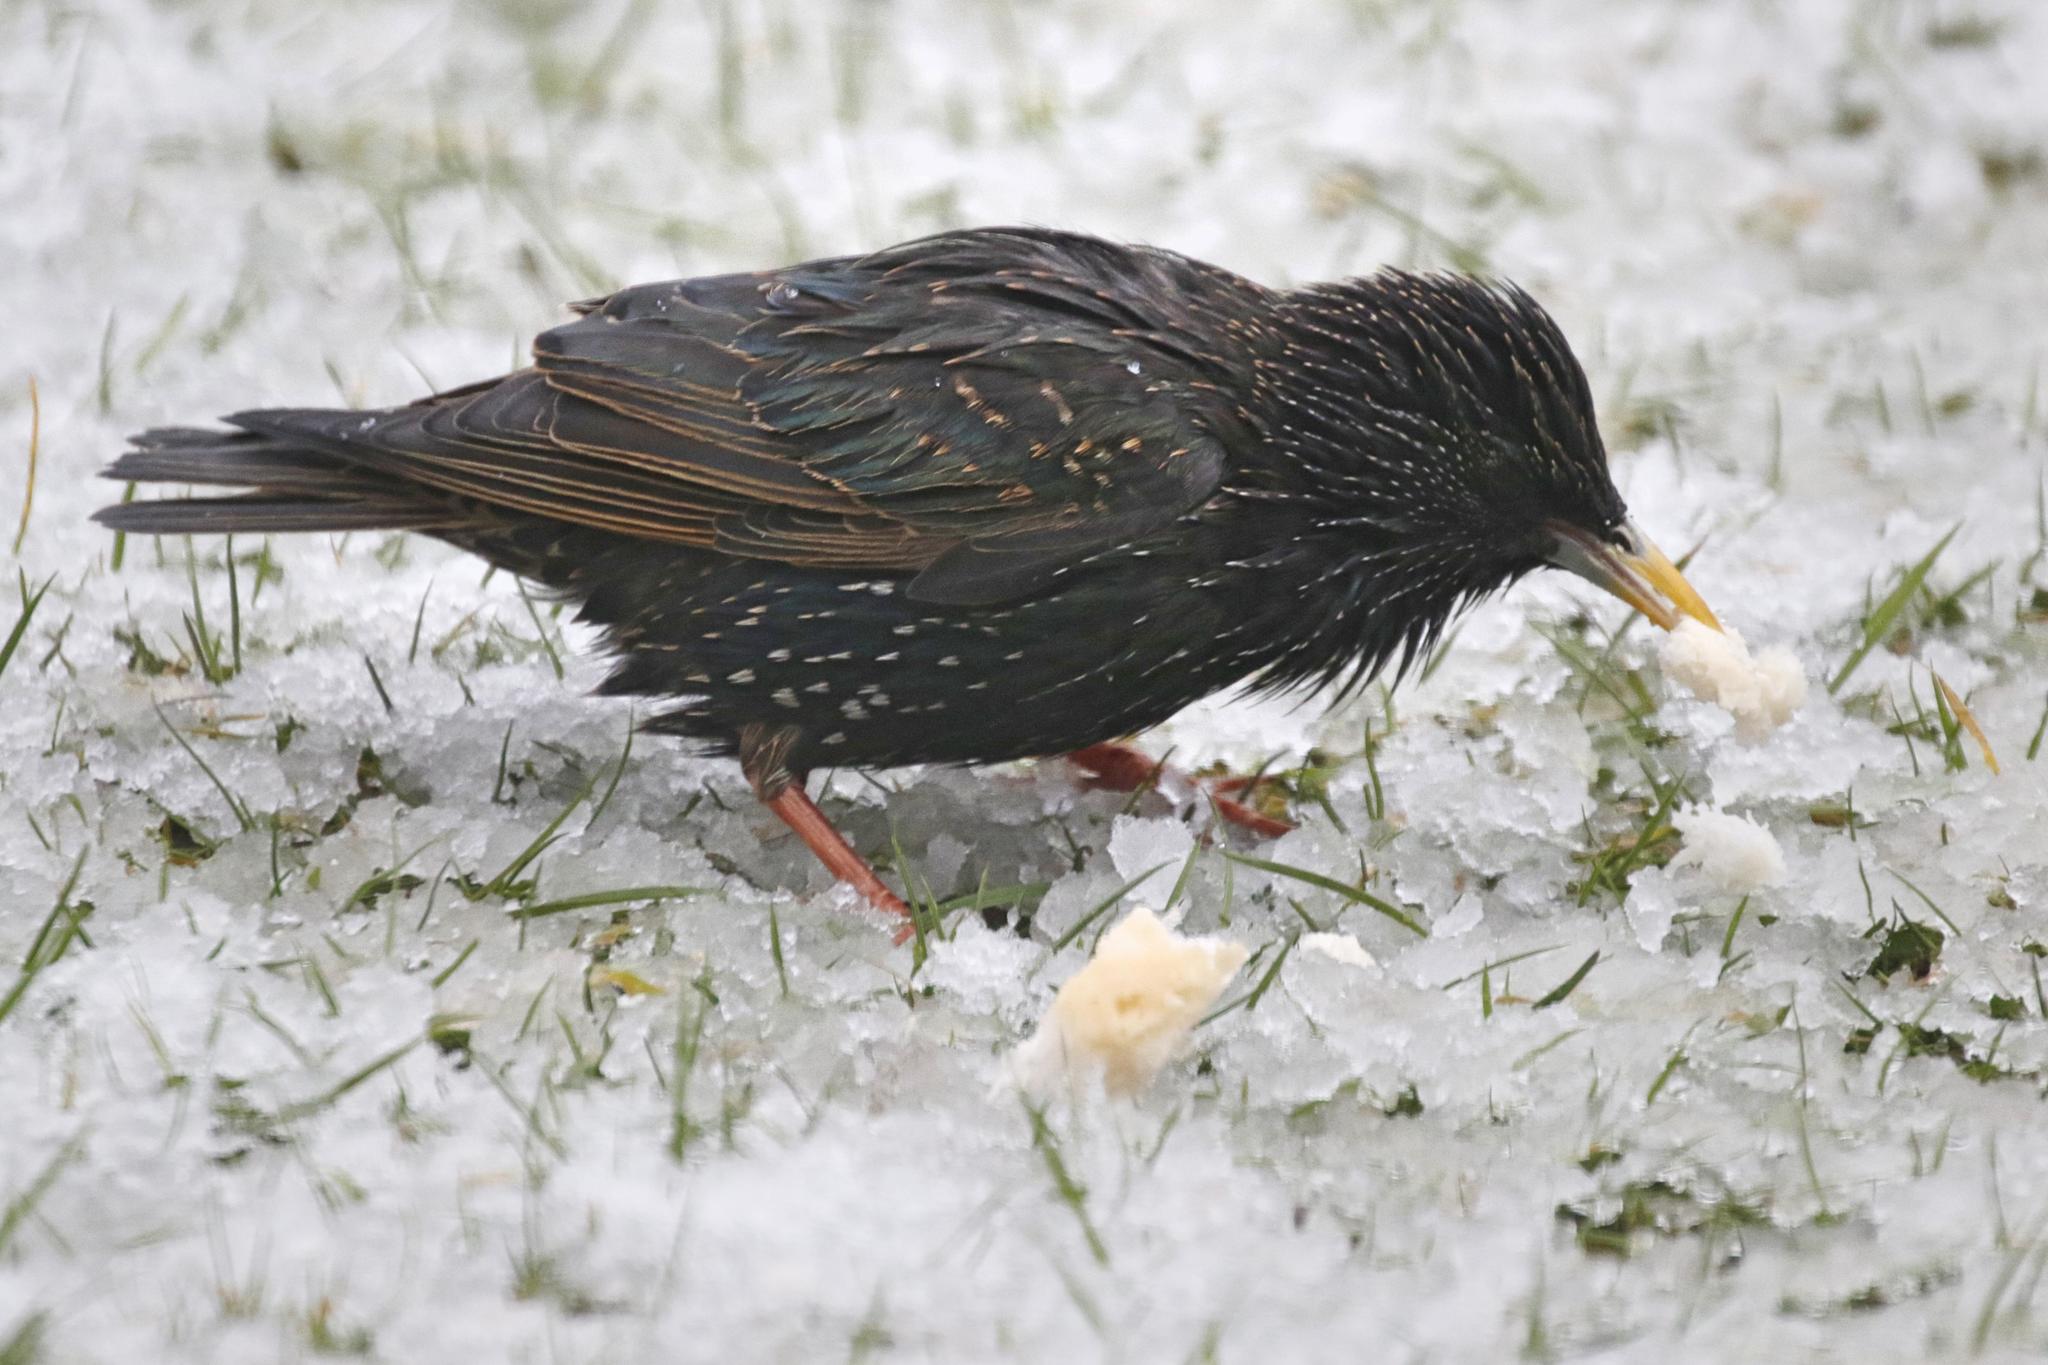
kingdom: Animalia
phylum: Chordata
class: Aves
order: Passeriformes
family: Sturnidae
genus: Sturnus
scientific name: Sturnus vulgaris
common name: Common starling
